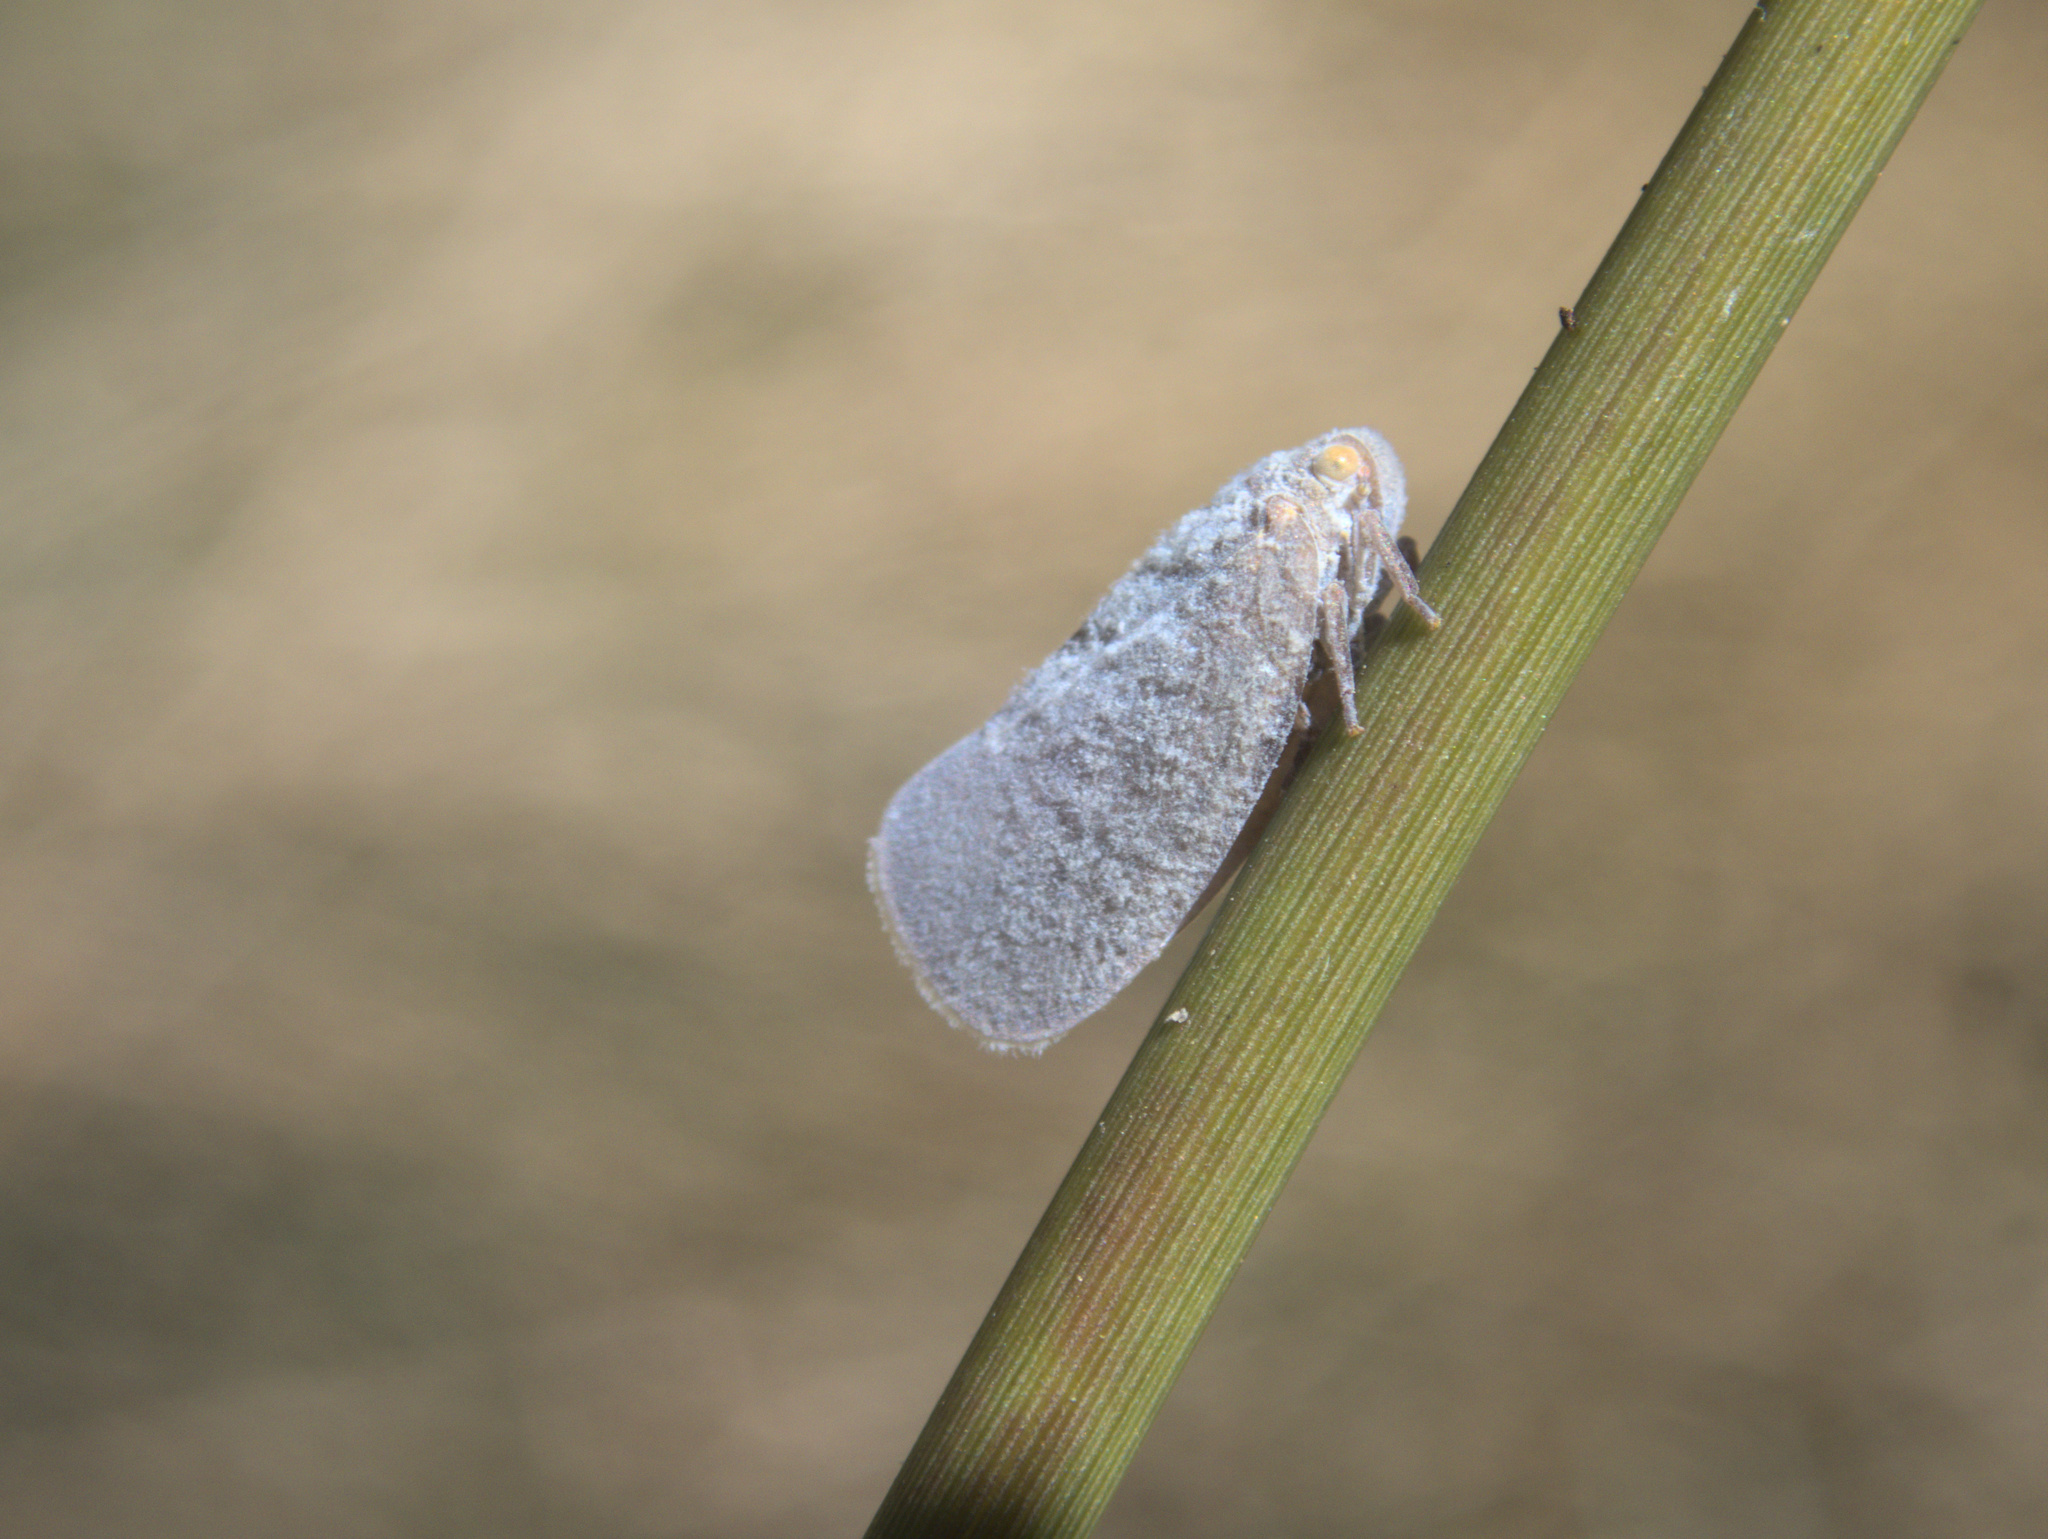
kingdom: Animalia
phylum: Arthropoda
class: Insecta
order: Hemiptera
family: Flatidae
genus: Anzora
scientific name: Anzora unicolor
